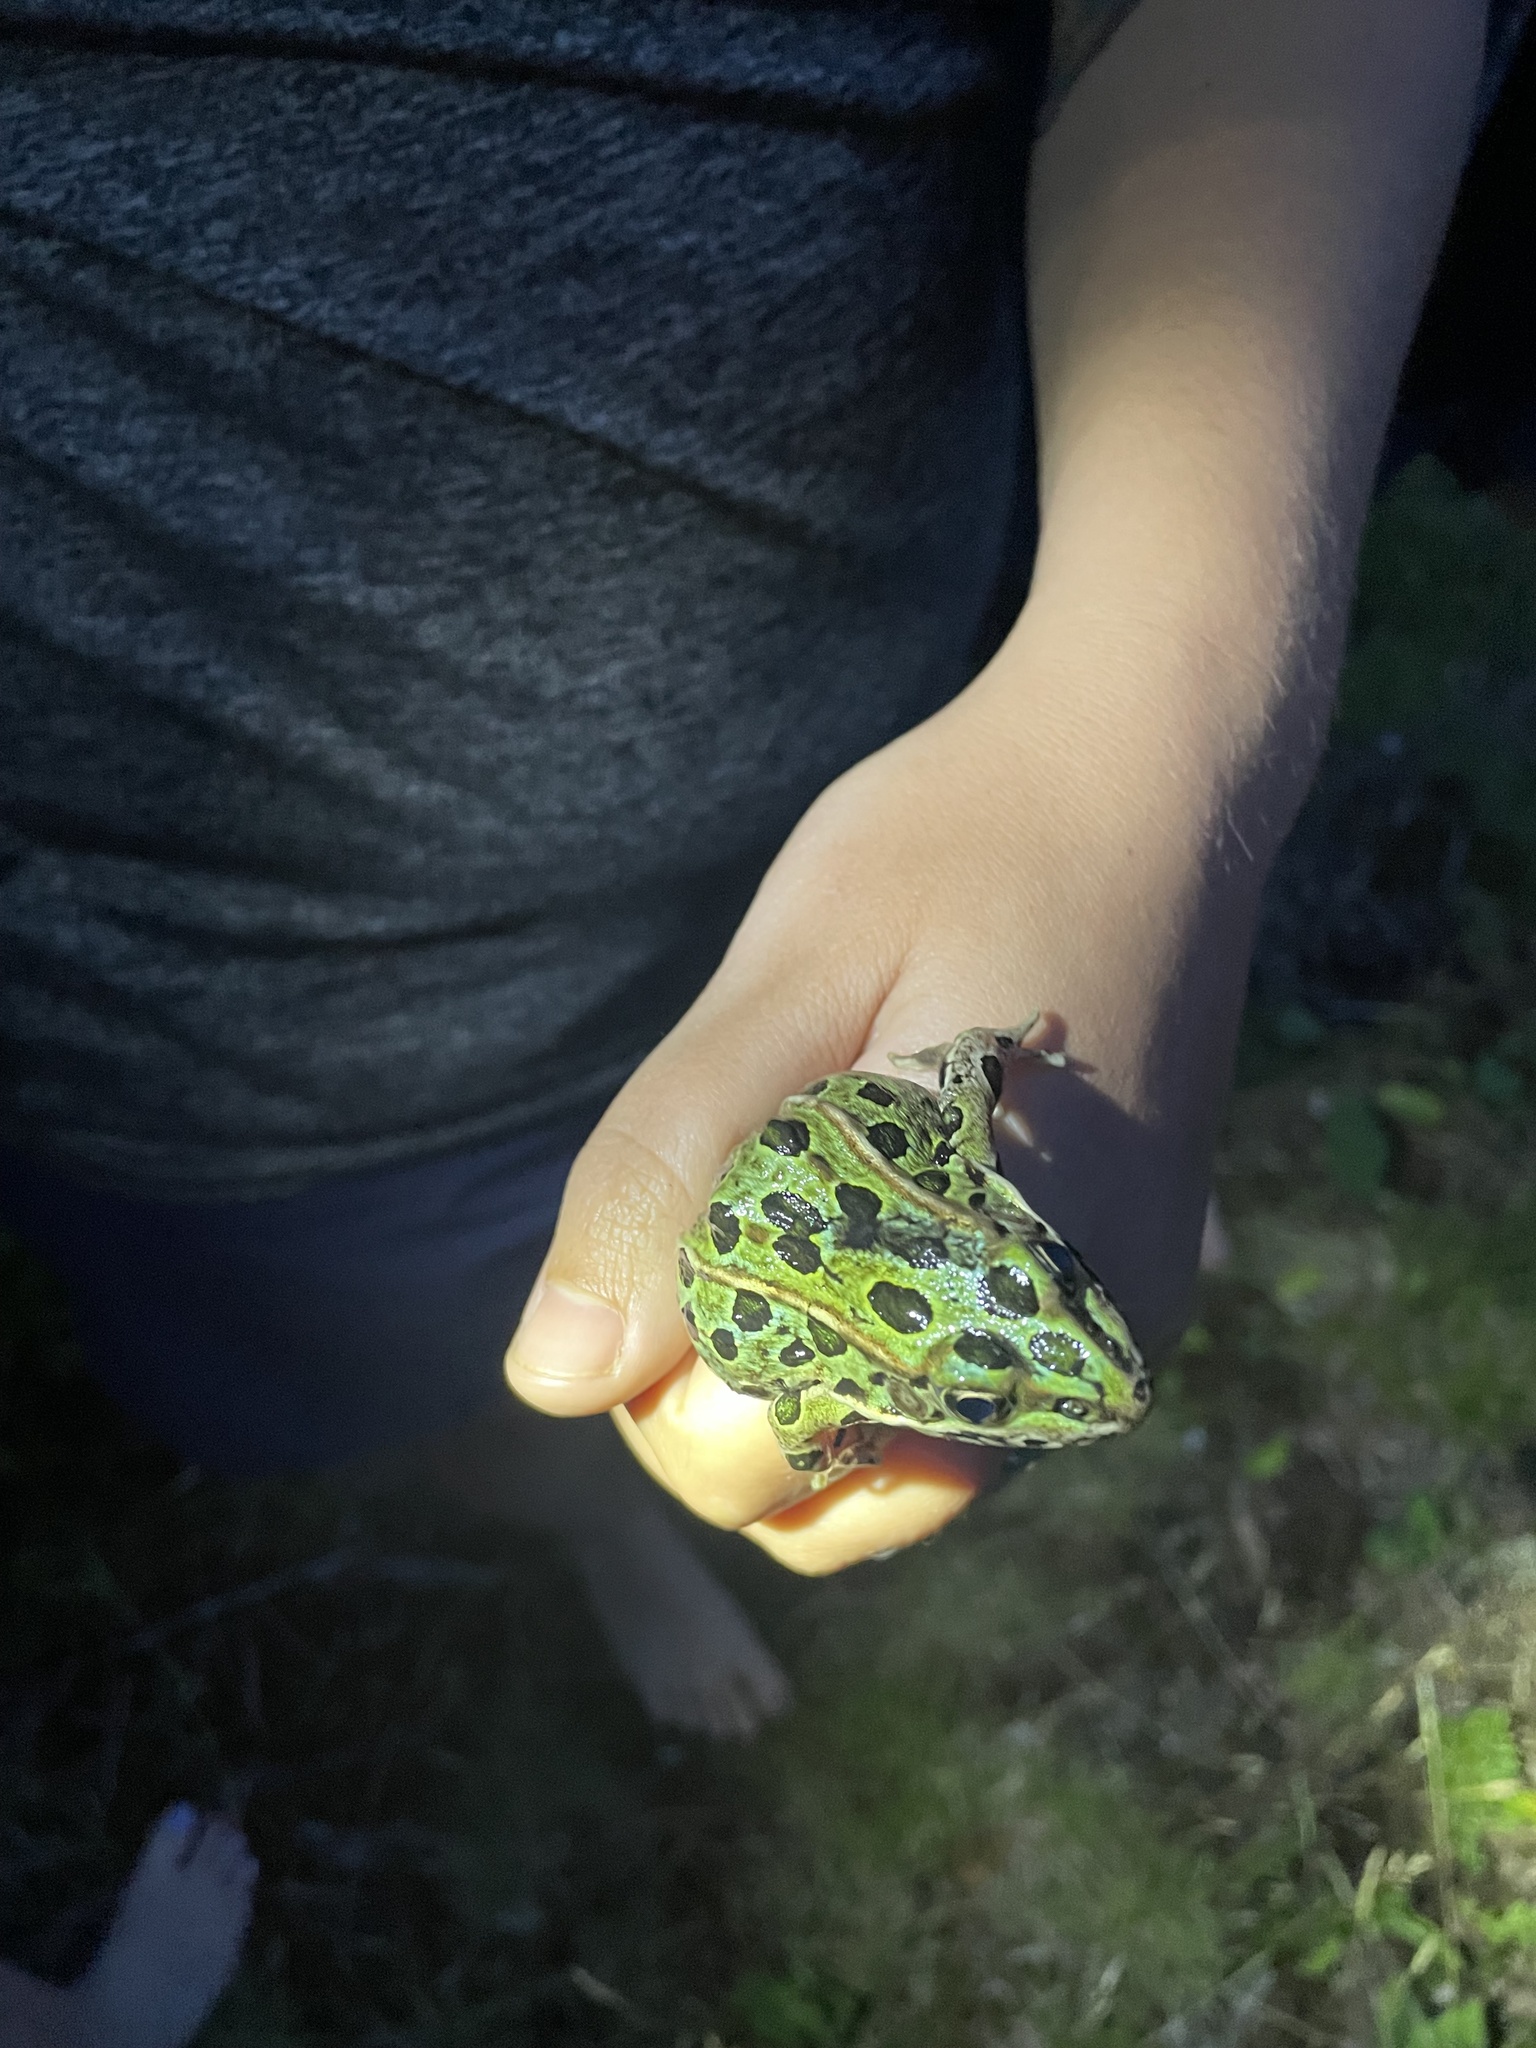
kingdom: Animalia
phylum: Chordata
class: Amphibia
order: Anura
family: Ranidae
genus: Lithobates
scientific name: Lithobates pipiens
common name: Northern leopard frog
